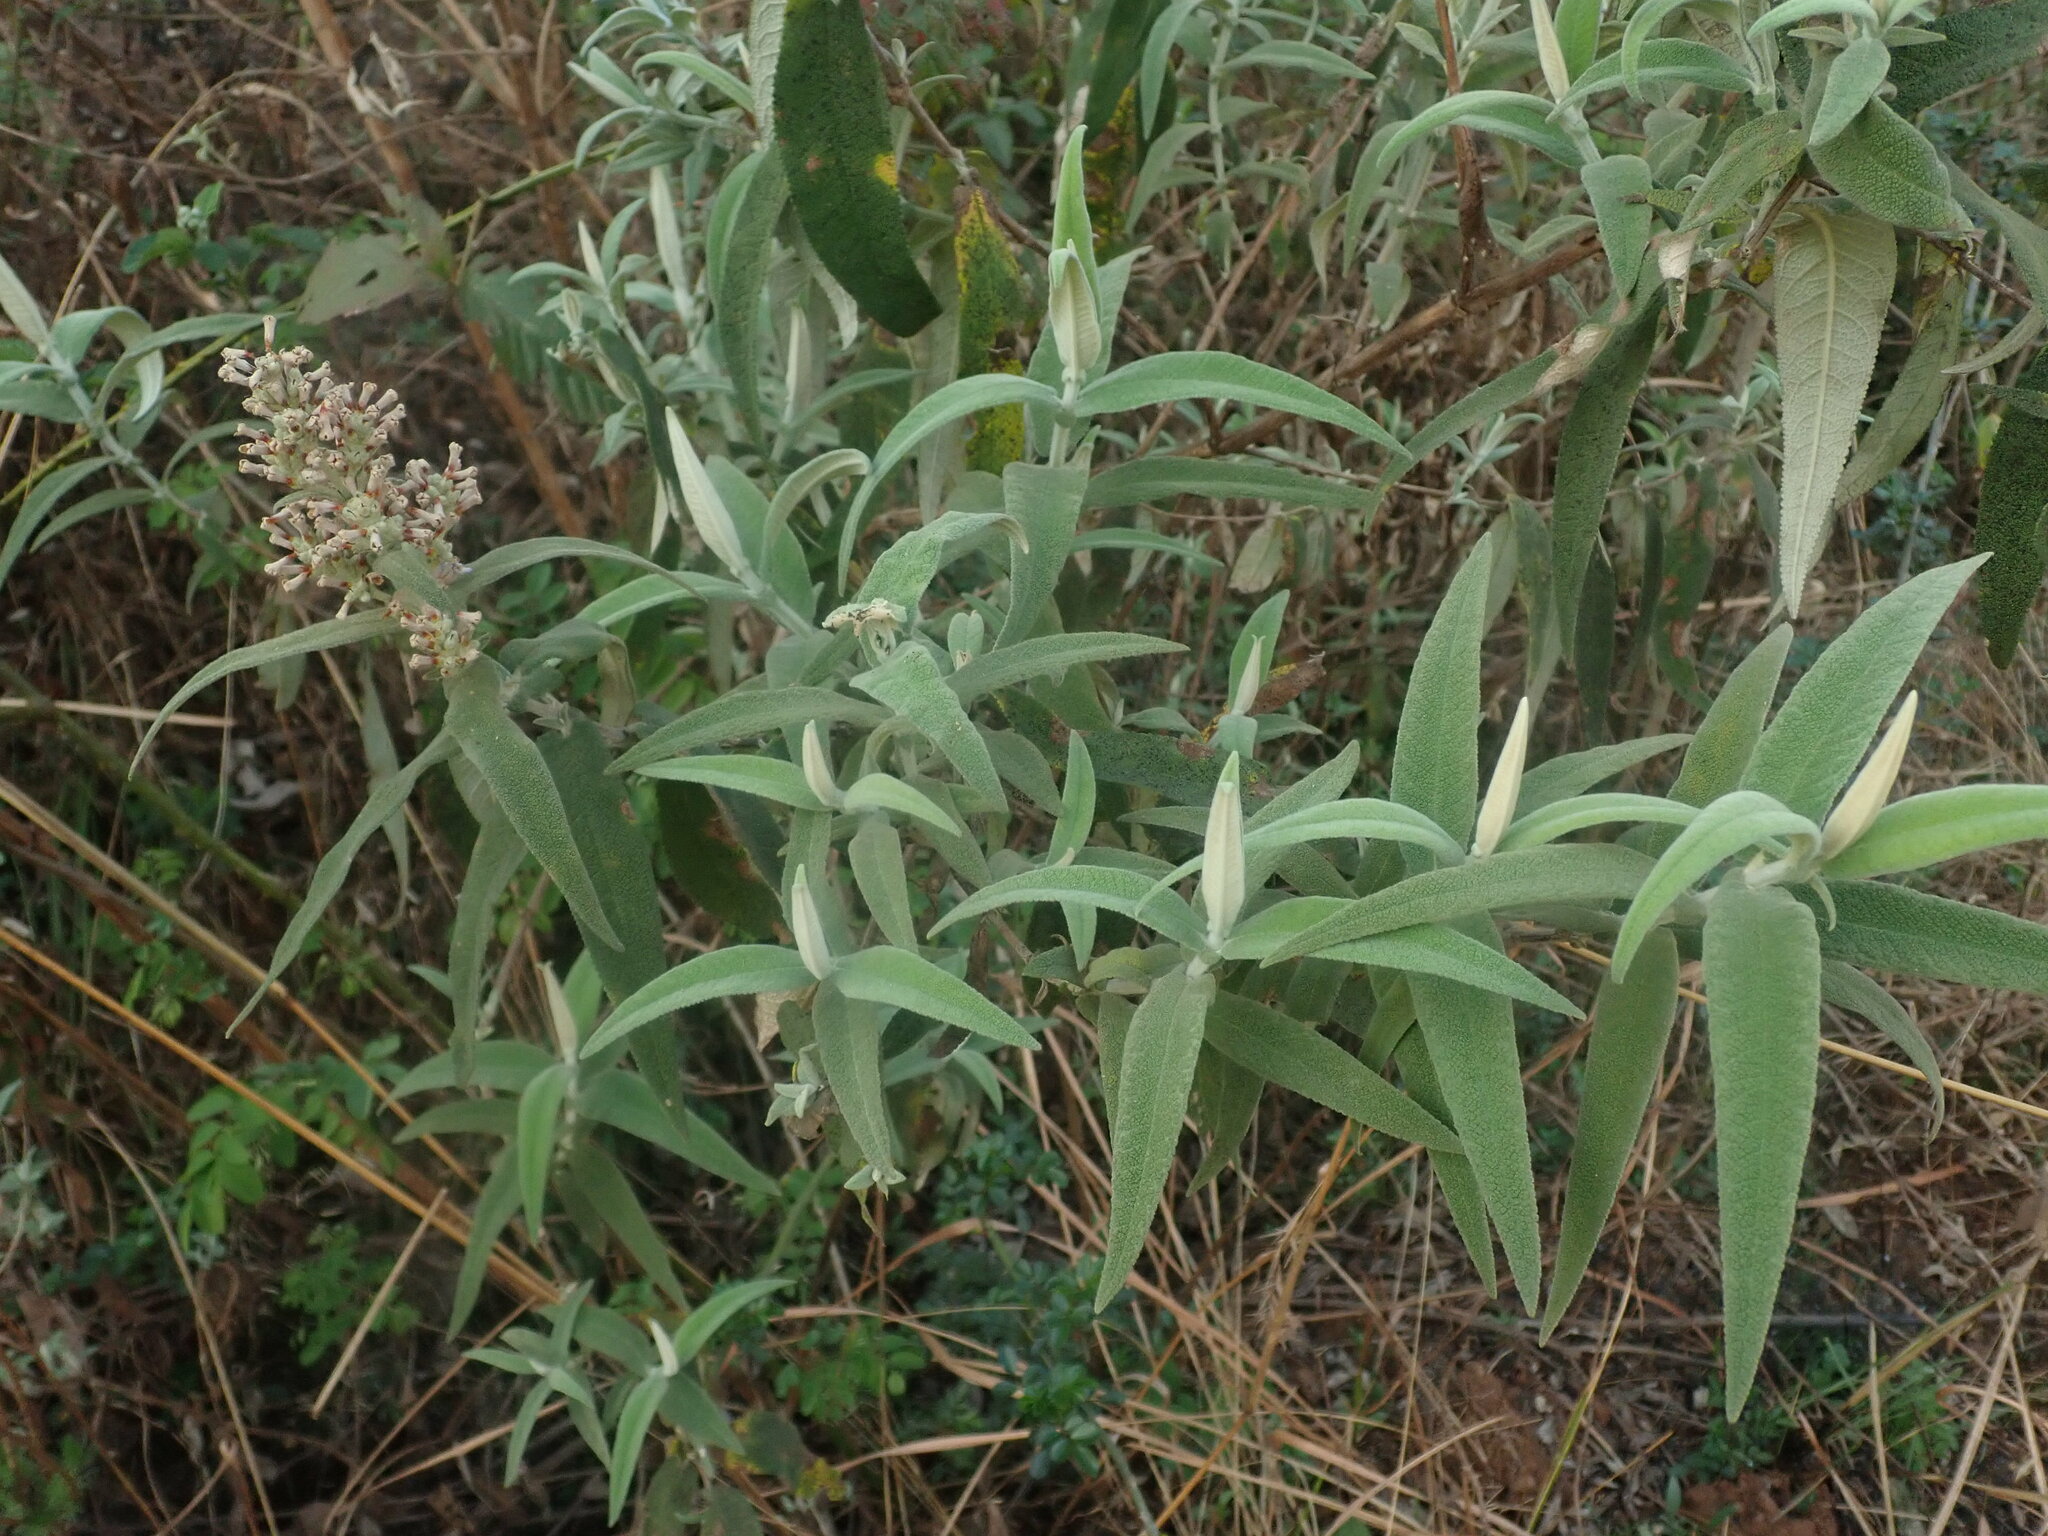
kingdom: Plantae
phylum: Tracheophyta
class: Magnoliopsida
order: Lamiales
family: Scrophulariaceae
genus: Buddleja
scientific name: Buddleja salviifolia
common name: Sagewood
